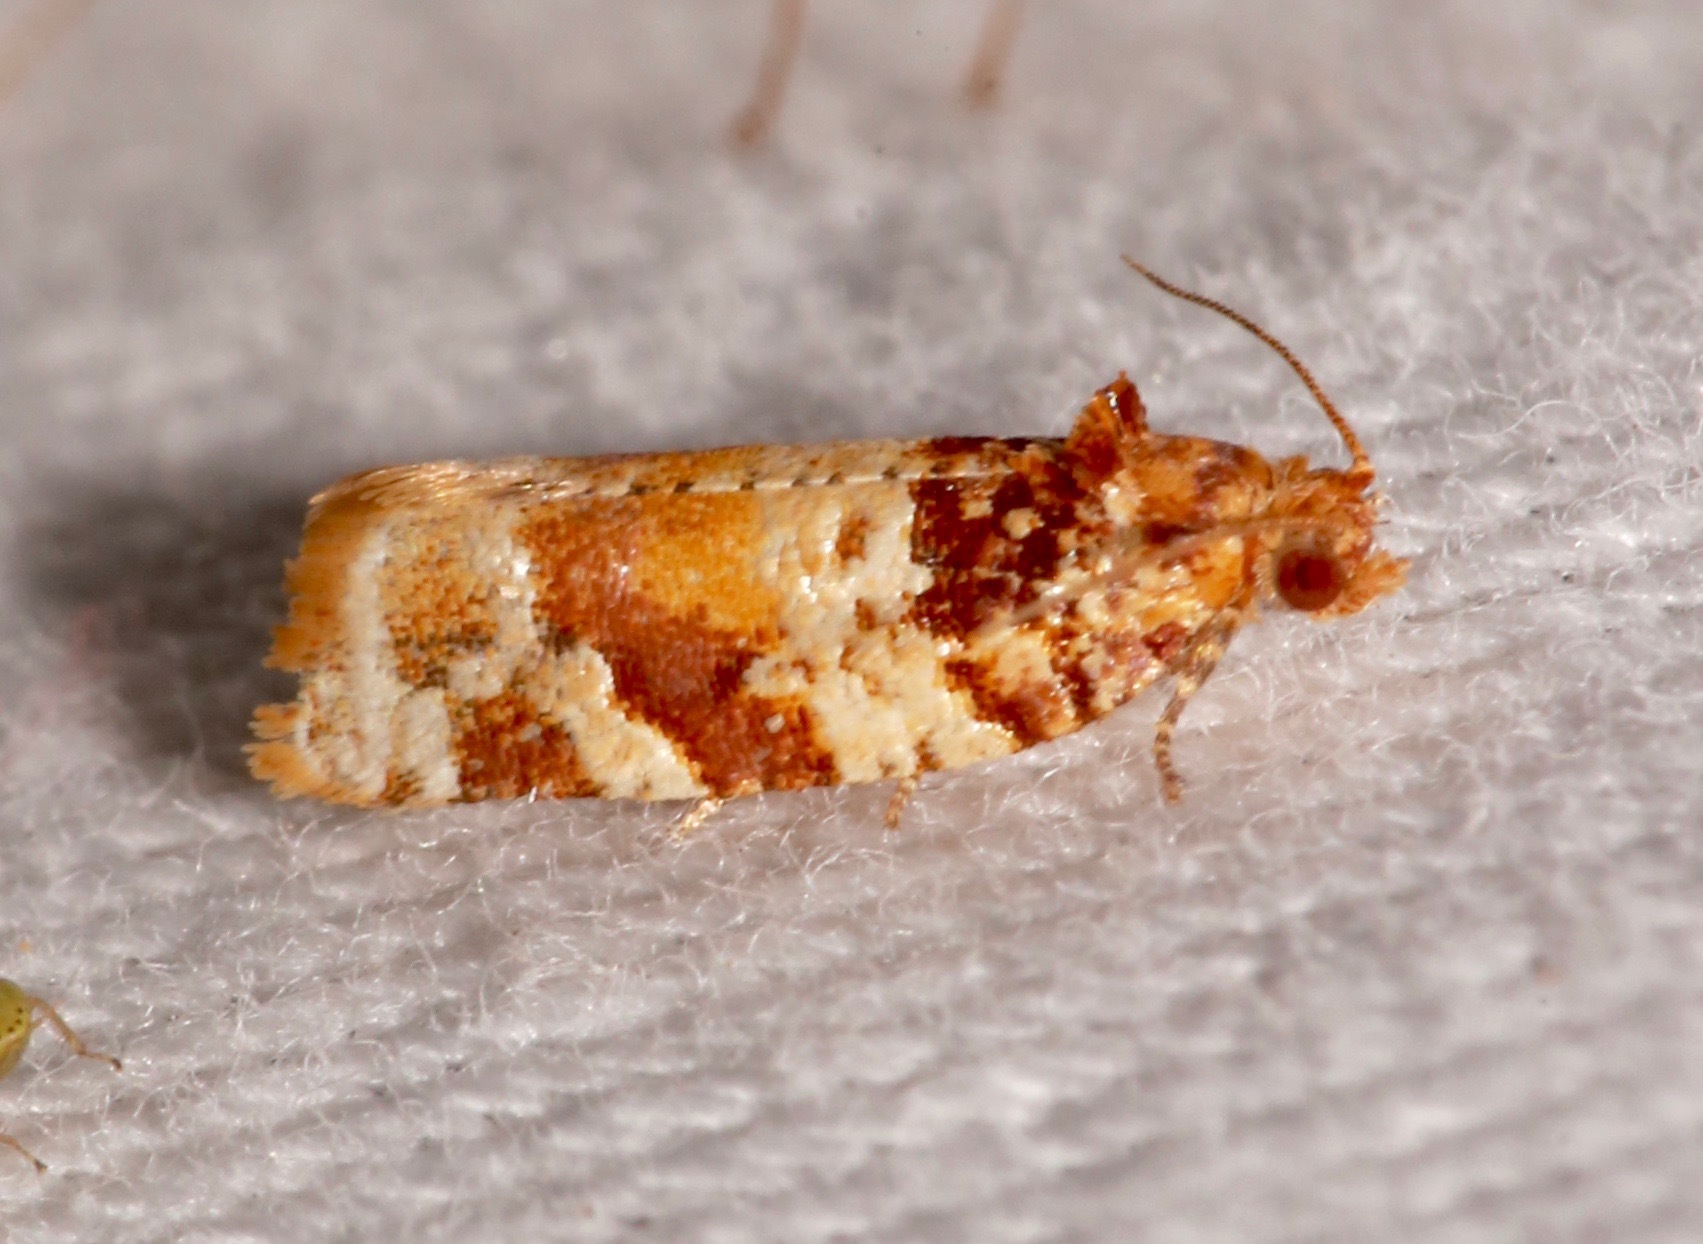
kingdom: Animalia
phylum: Arthropoda
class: Insecta
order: Lepidoptera
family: Tortricidae
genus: Argyrotaenia
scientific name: Argyrotaenia kimballi
